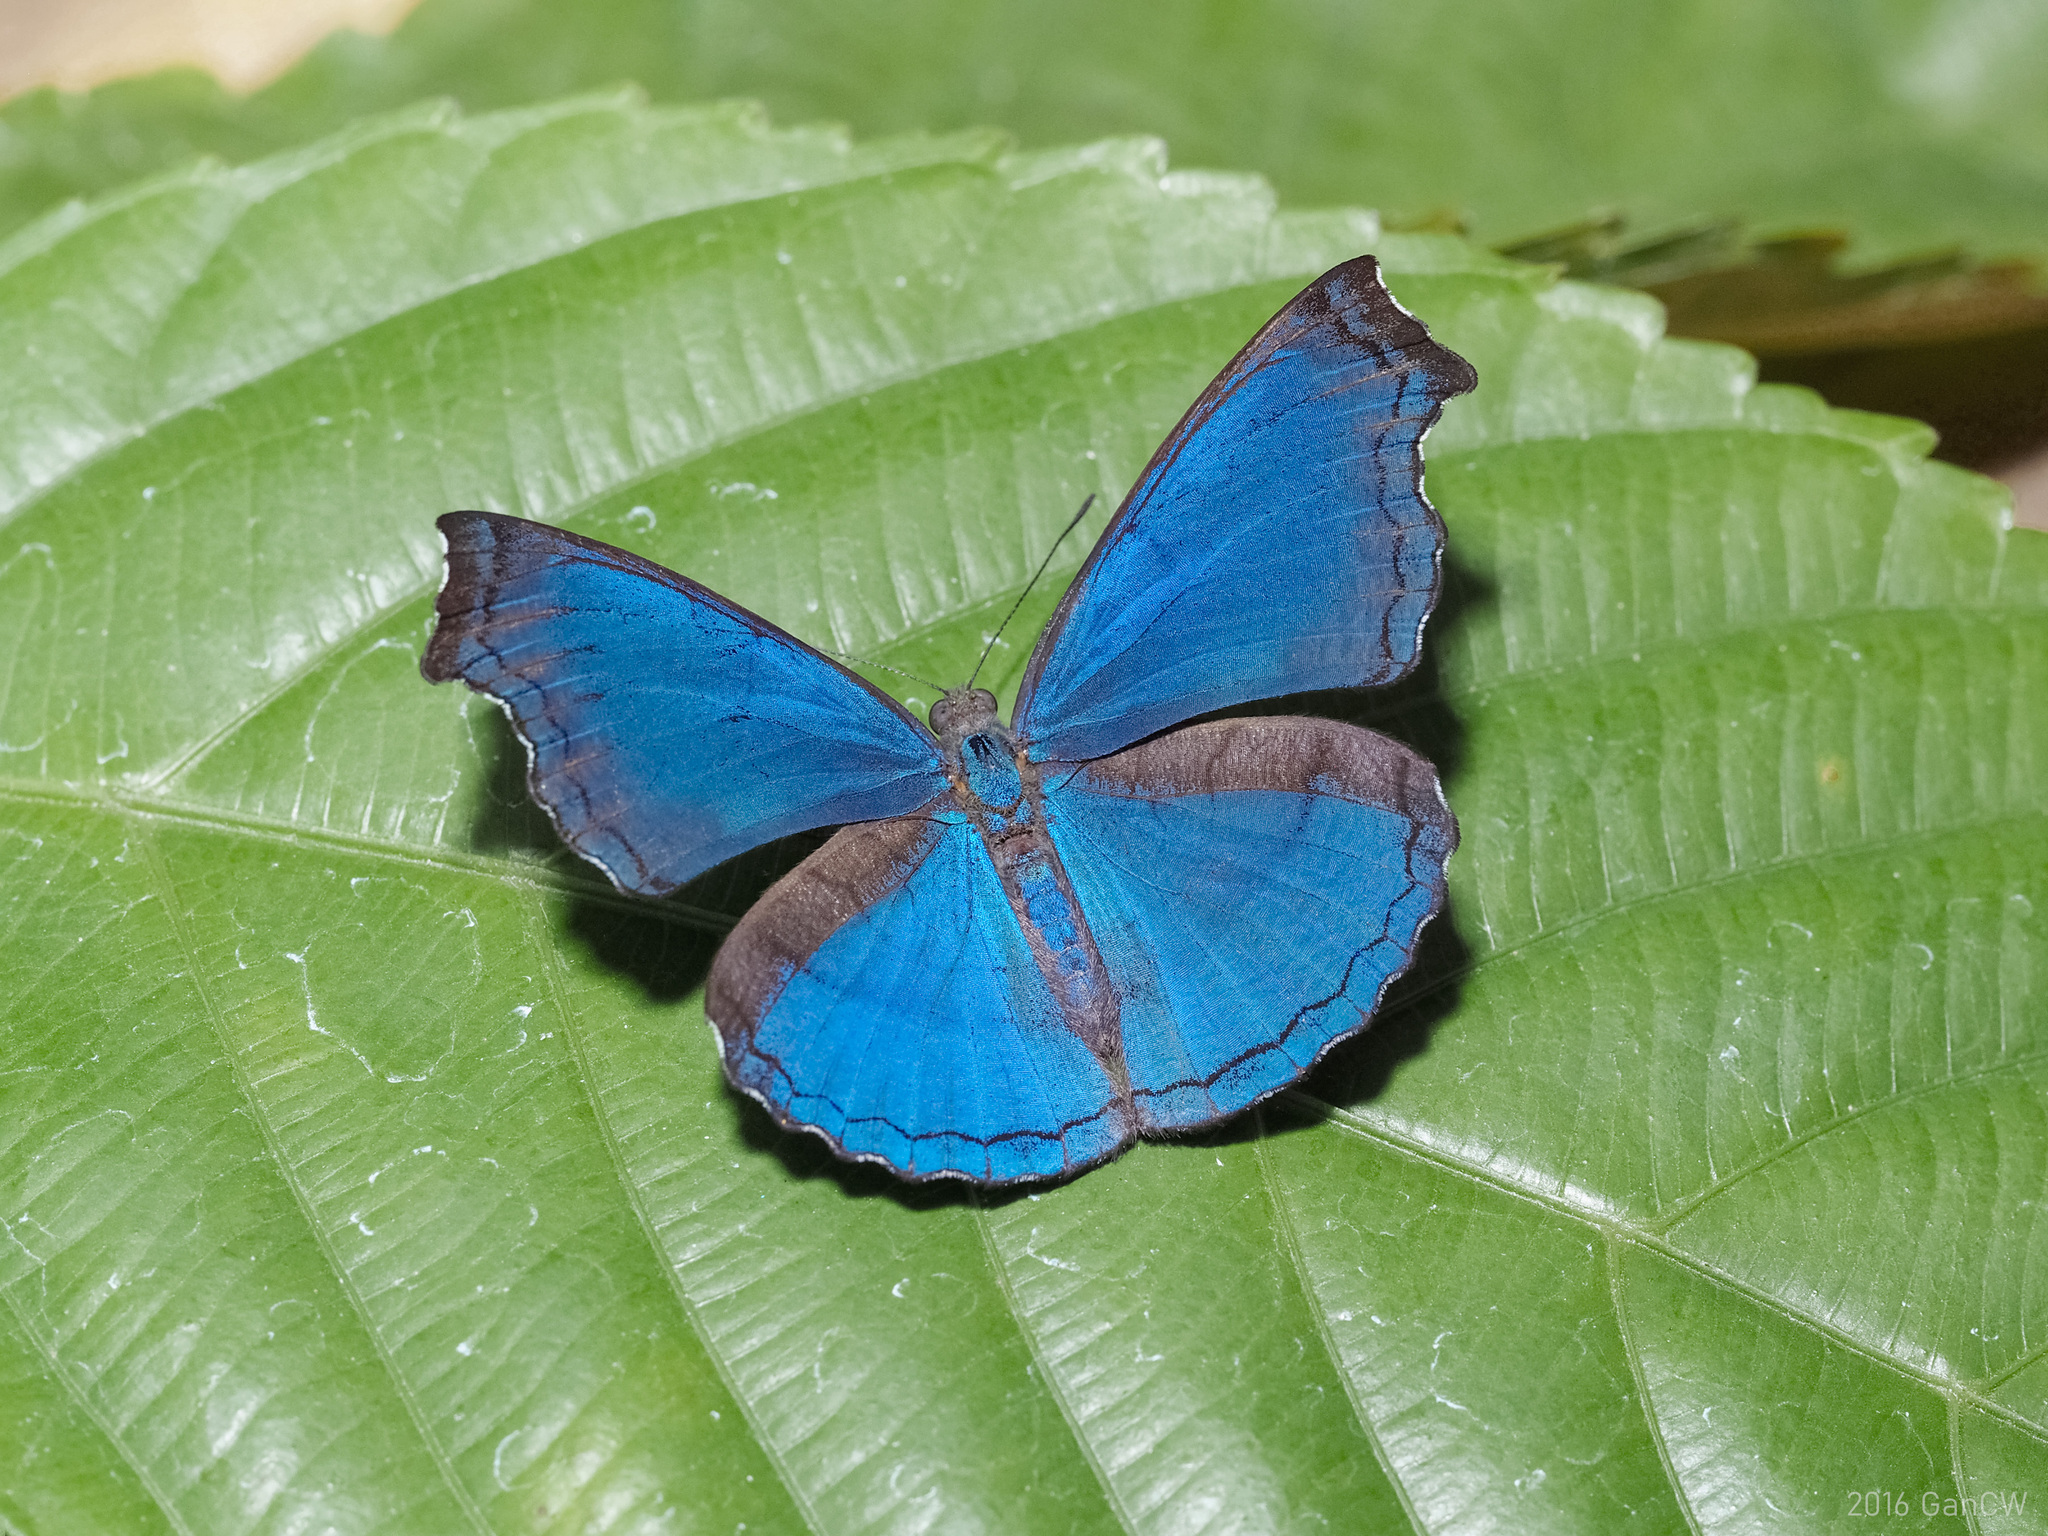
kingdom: Animalia
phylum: Arthropoda
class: Insecta
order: Lepidoptera
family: Nymphalidae
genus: Laringa
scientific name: Laringa castelnaui
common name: Blue dandy
